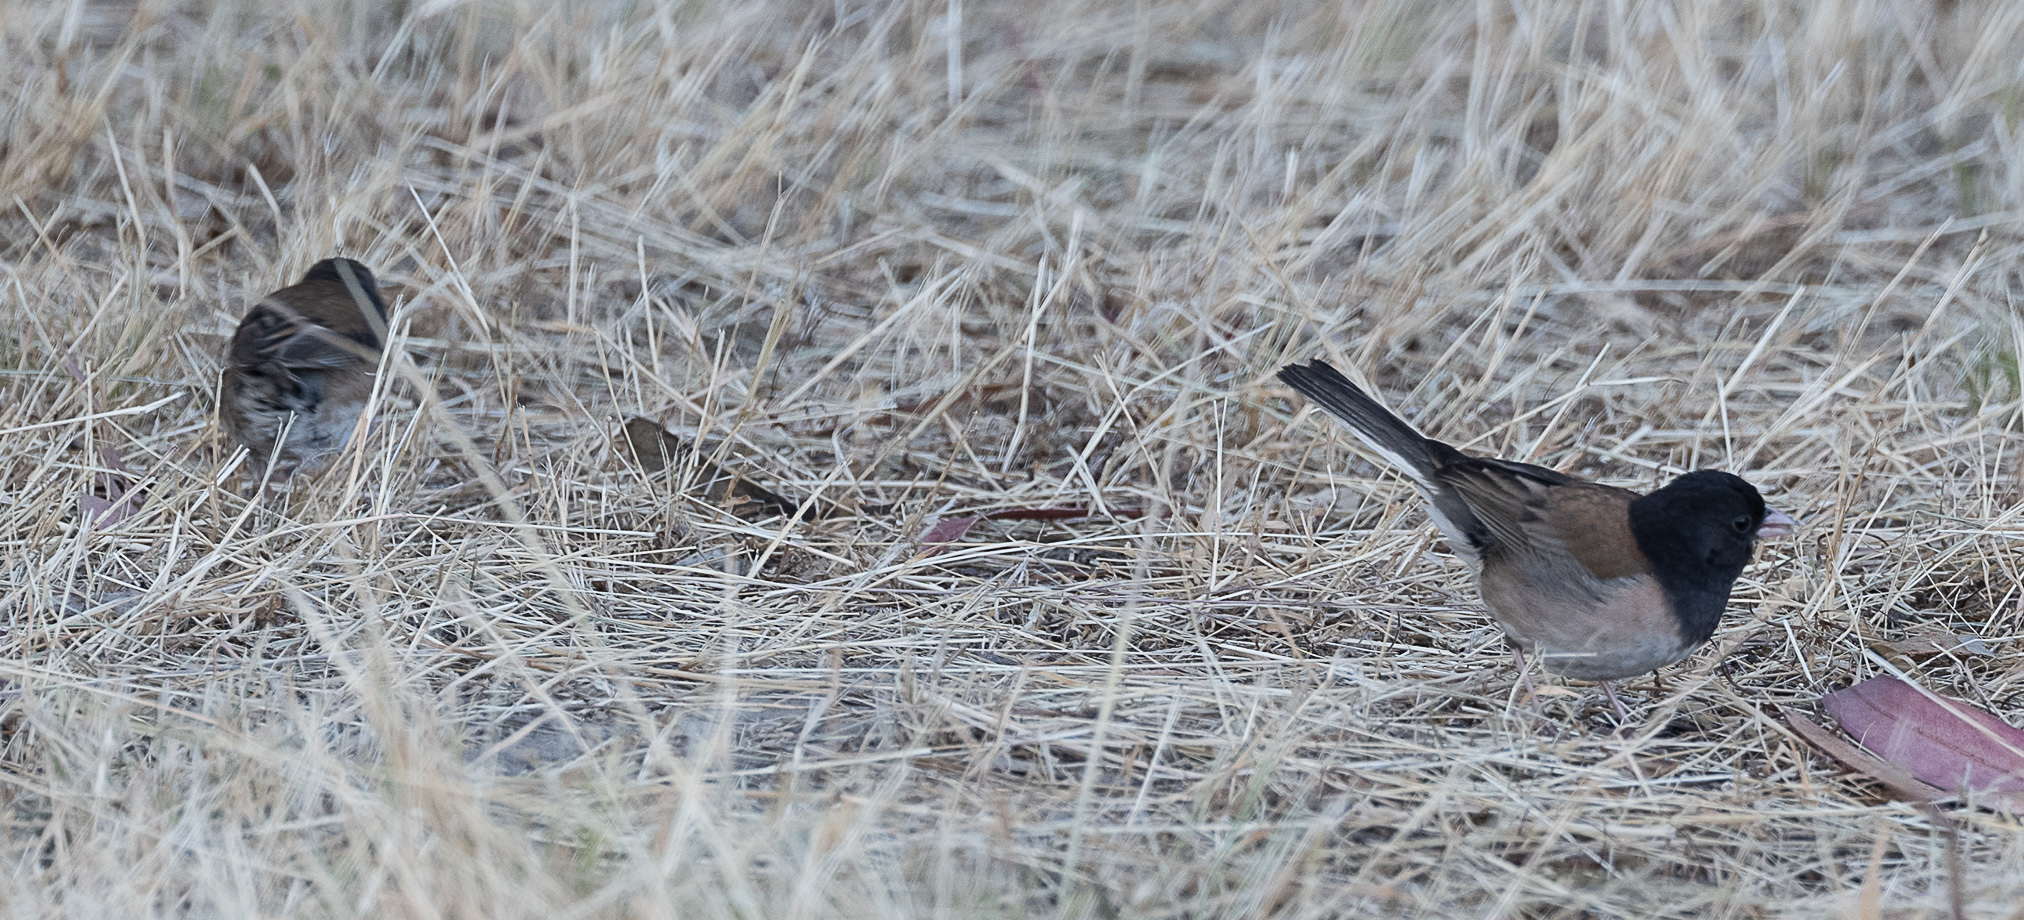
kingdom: Animalia
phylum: Chordata
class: Aves
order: Passeriformes
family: Passerellidae
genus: Junco
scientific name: Junco hyemalis
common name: Dark-eyed junco
